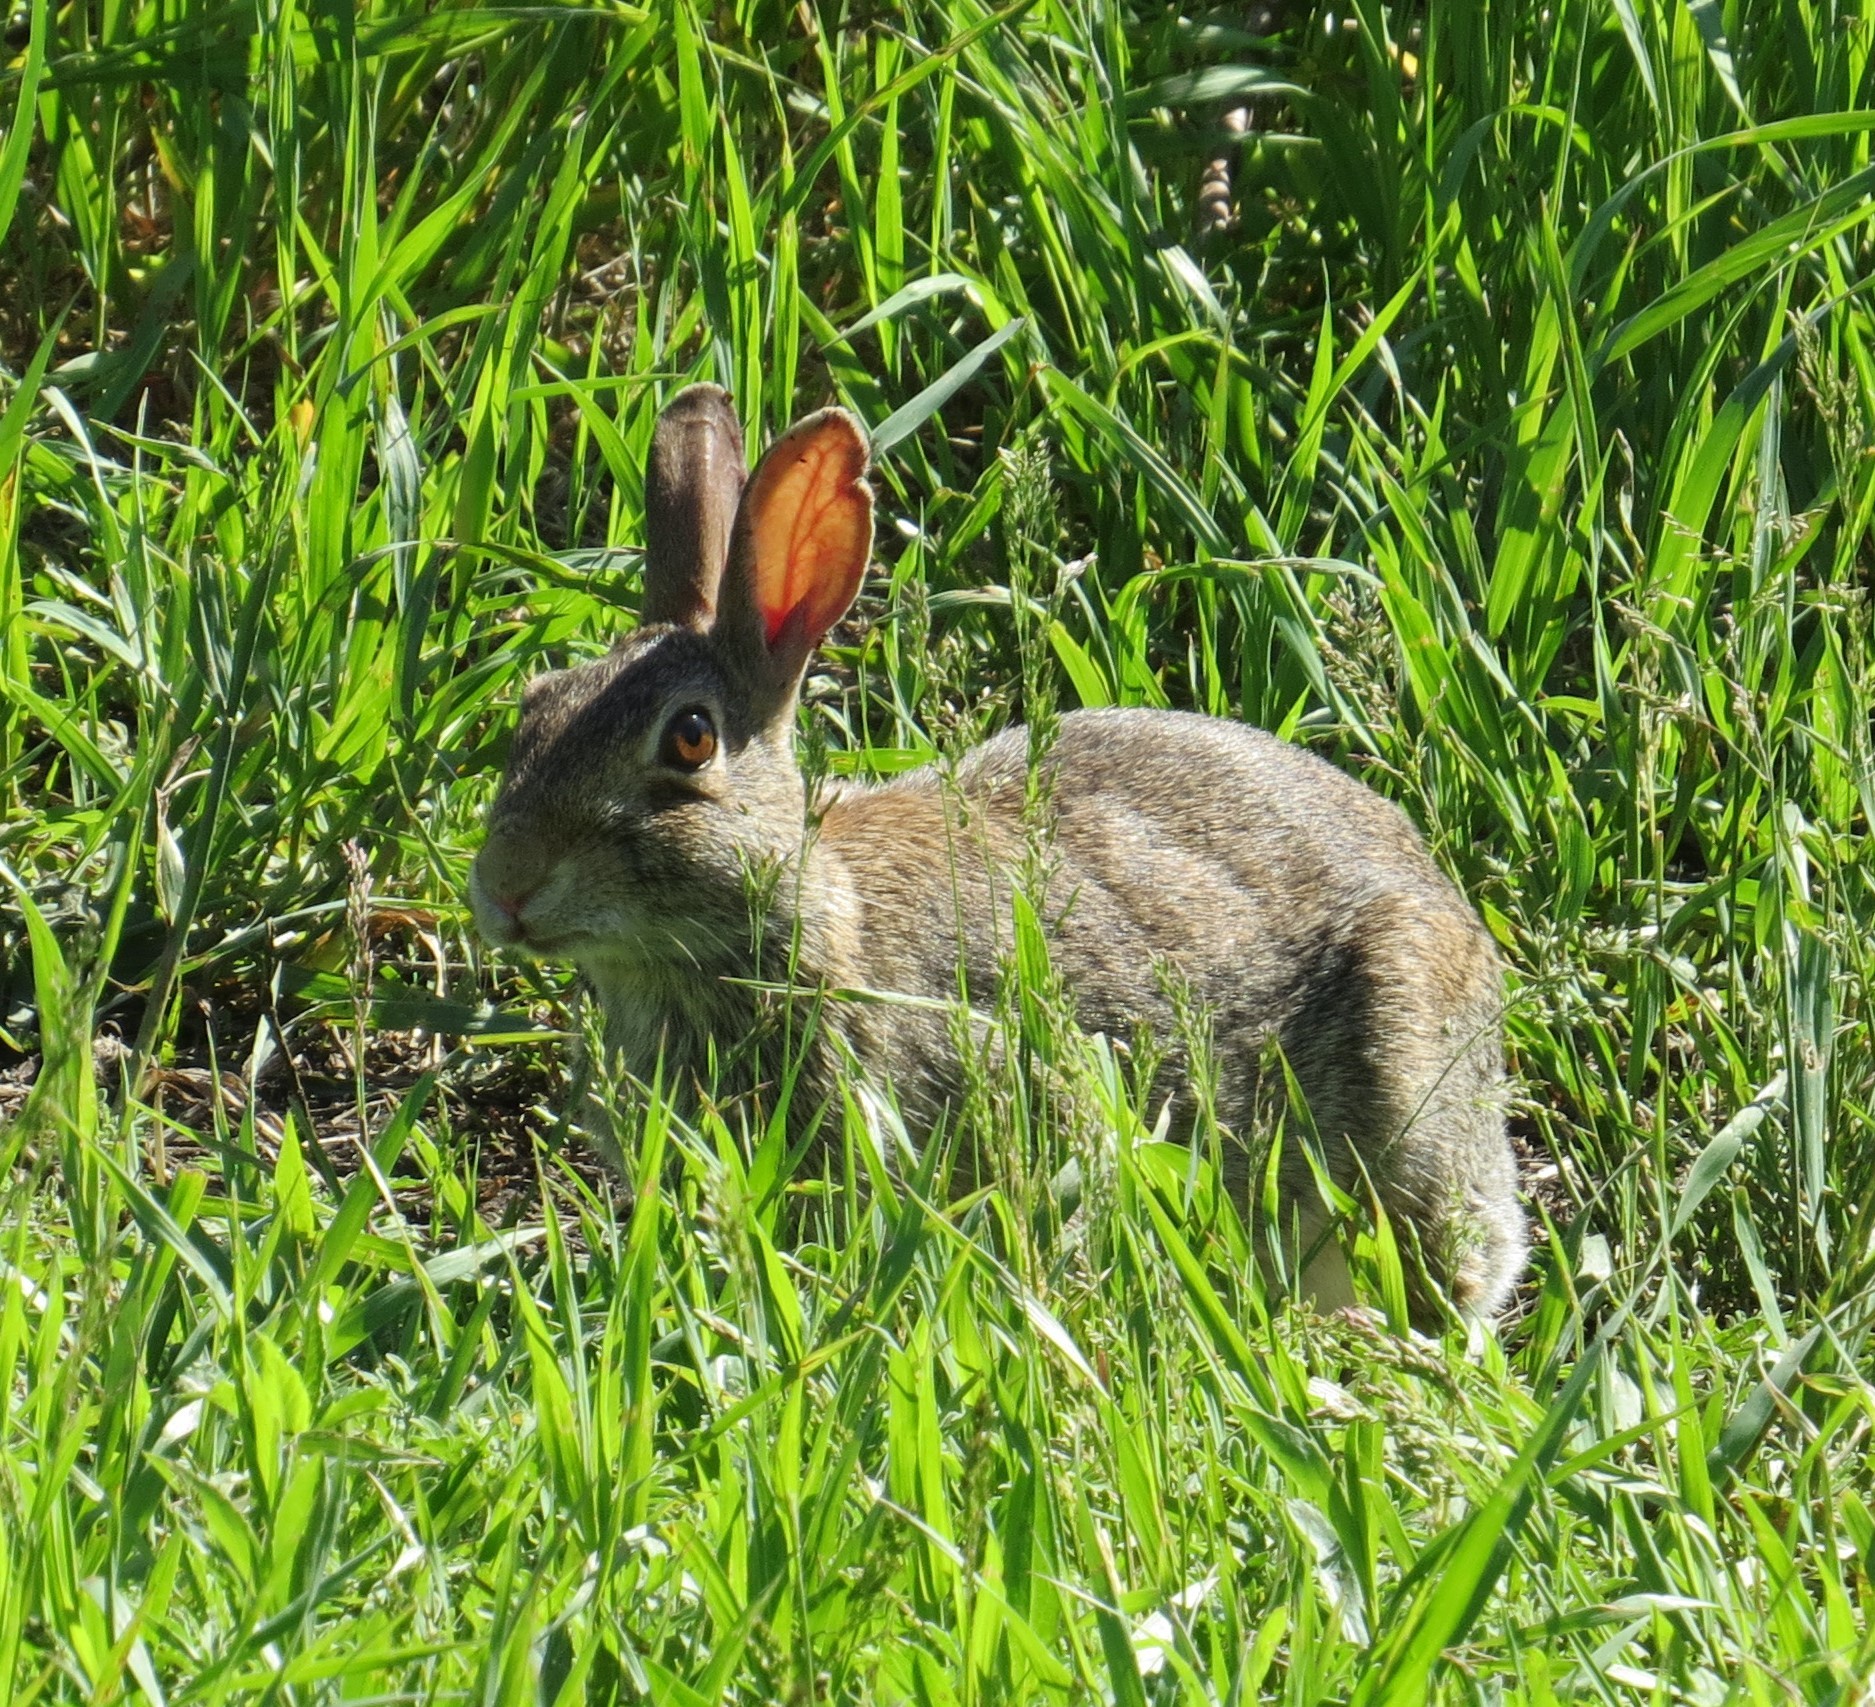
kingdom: Animalia
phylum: Chordata
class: Mammalia
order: Lagomorpha
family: Leporidae
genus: Sylvilagus
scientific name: Sylvilagus floridanus
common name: Eastern cottontail
